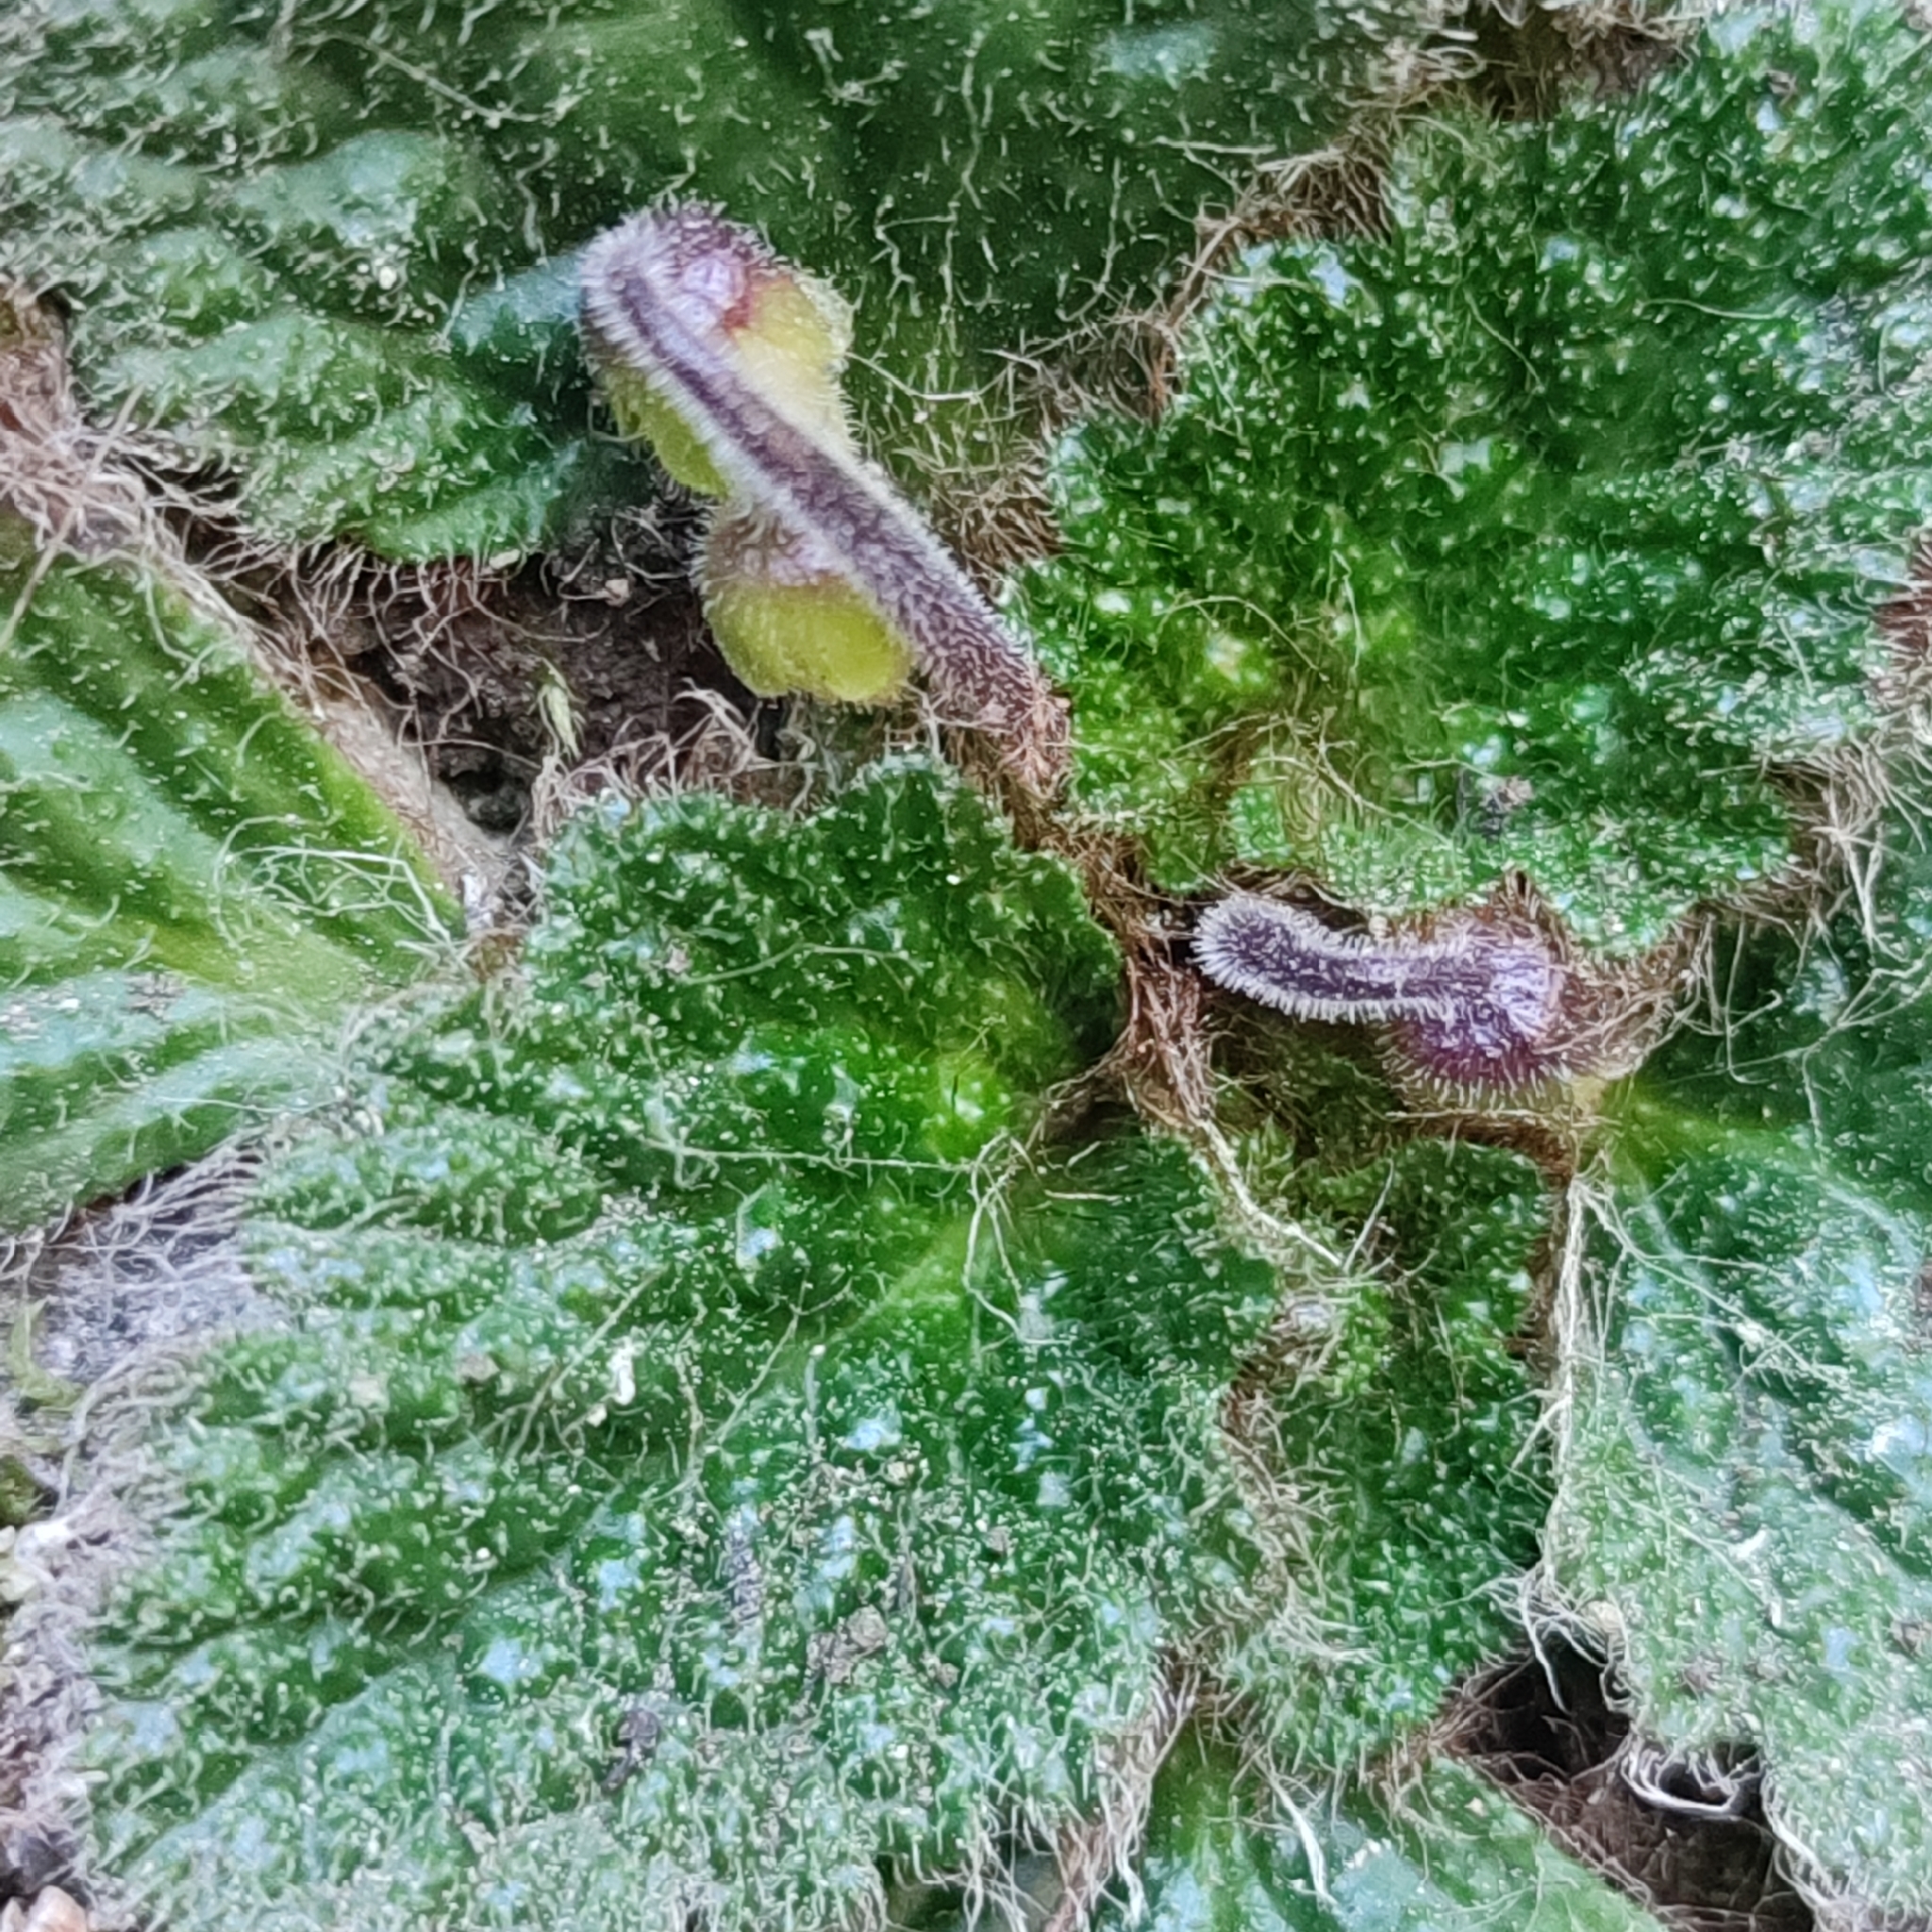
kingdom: Plantae
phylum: Tracheophyta
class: Magnoliopsida
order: Lamiales
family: Gesneriaceae
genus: Ramonda
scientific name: Ramonda myconi
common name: Pyrenean-violet
